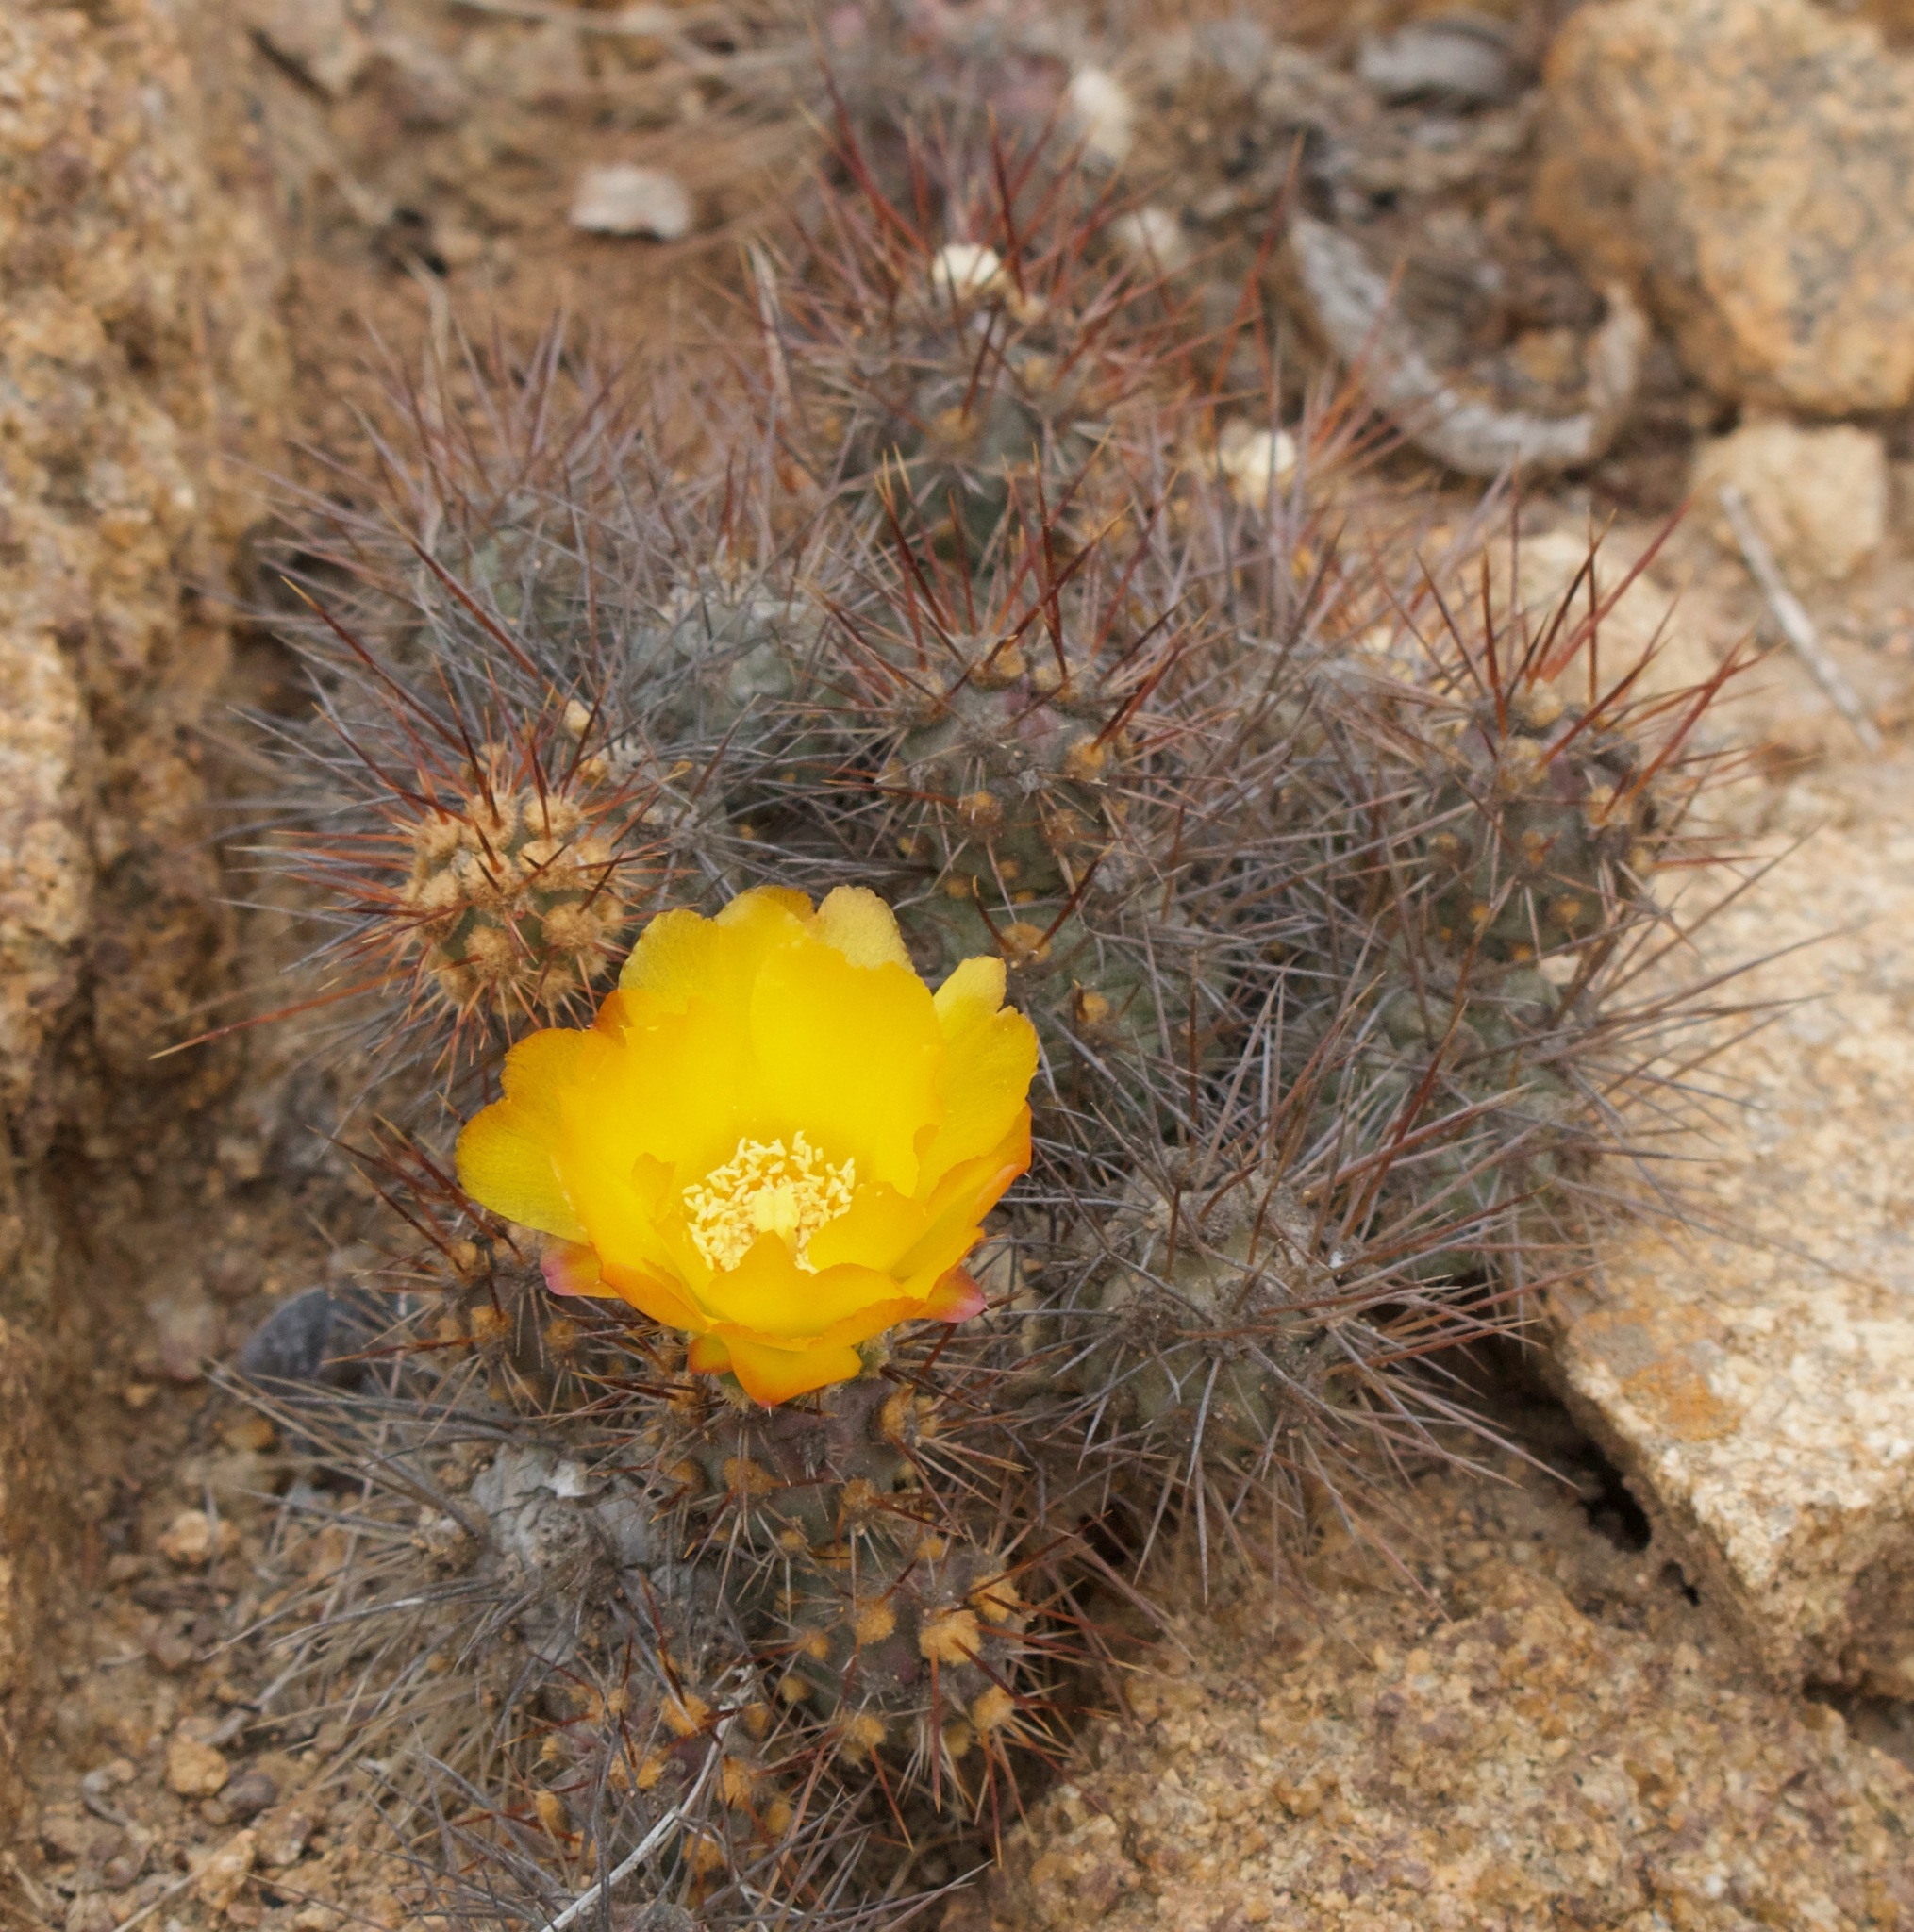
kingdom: Plantae
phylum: Tracheophyta
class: Magnoliopsida
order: Caryophyllales
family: Cactaceae
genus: Cumulopuntia
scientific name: Cumulopuntia leucophaea
